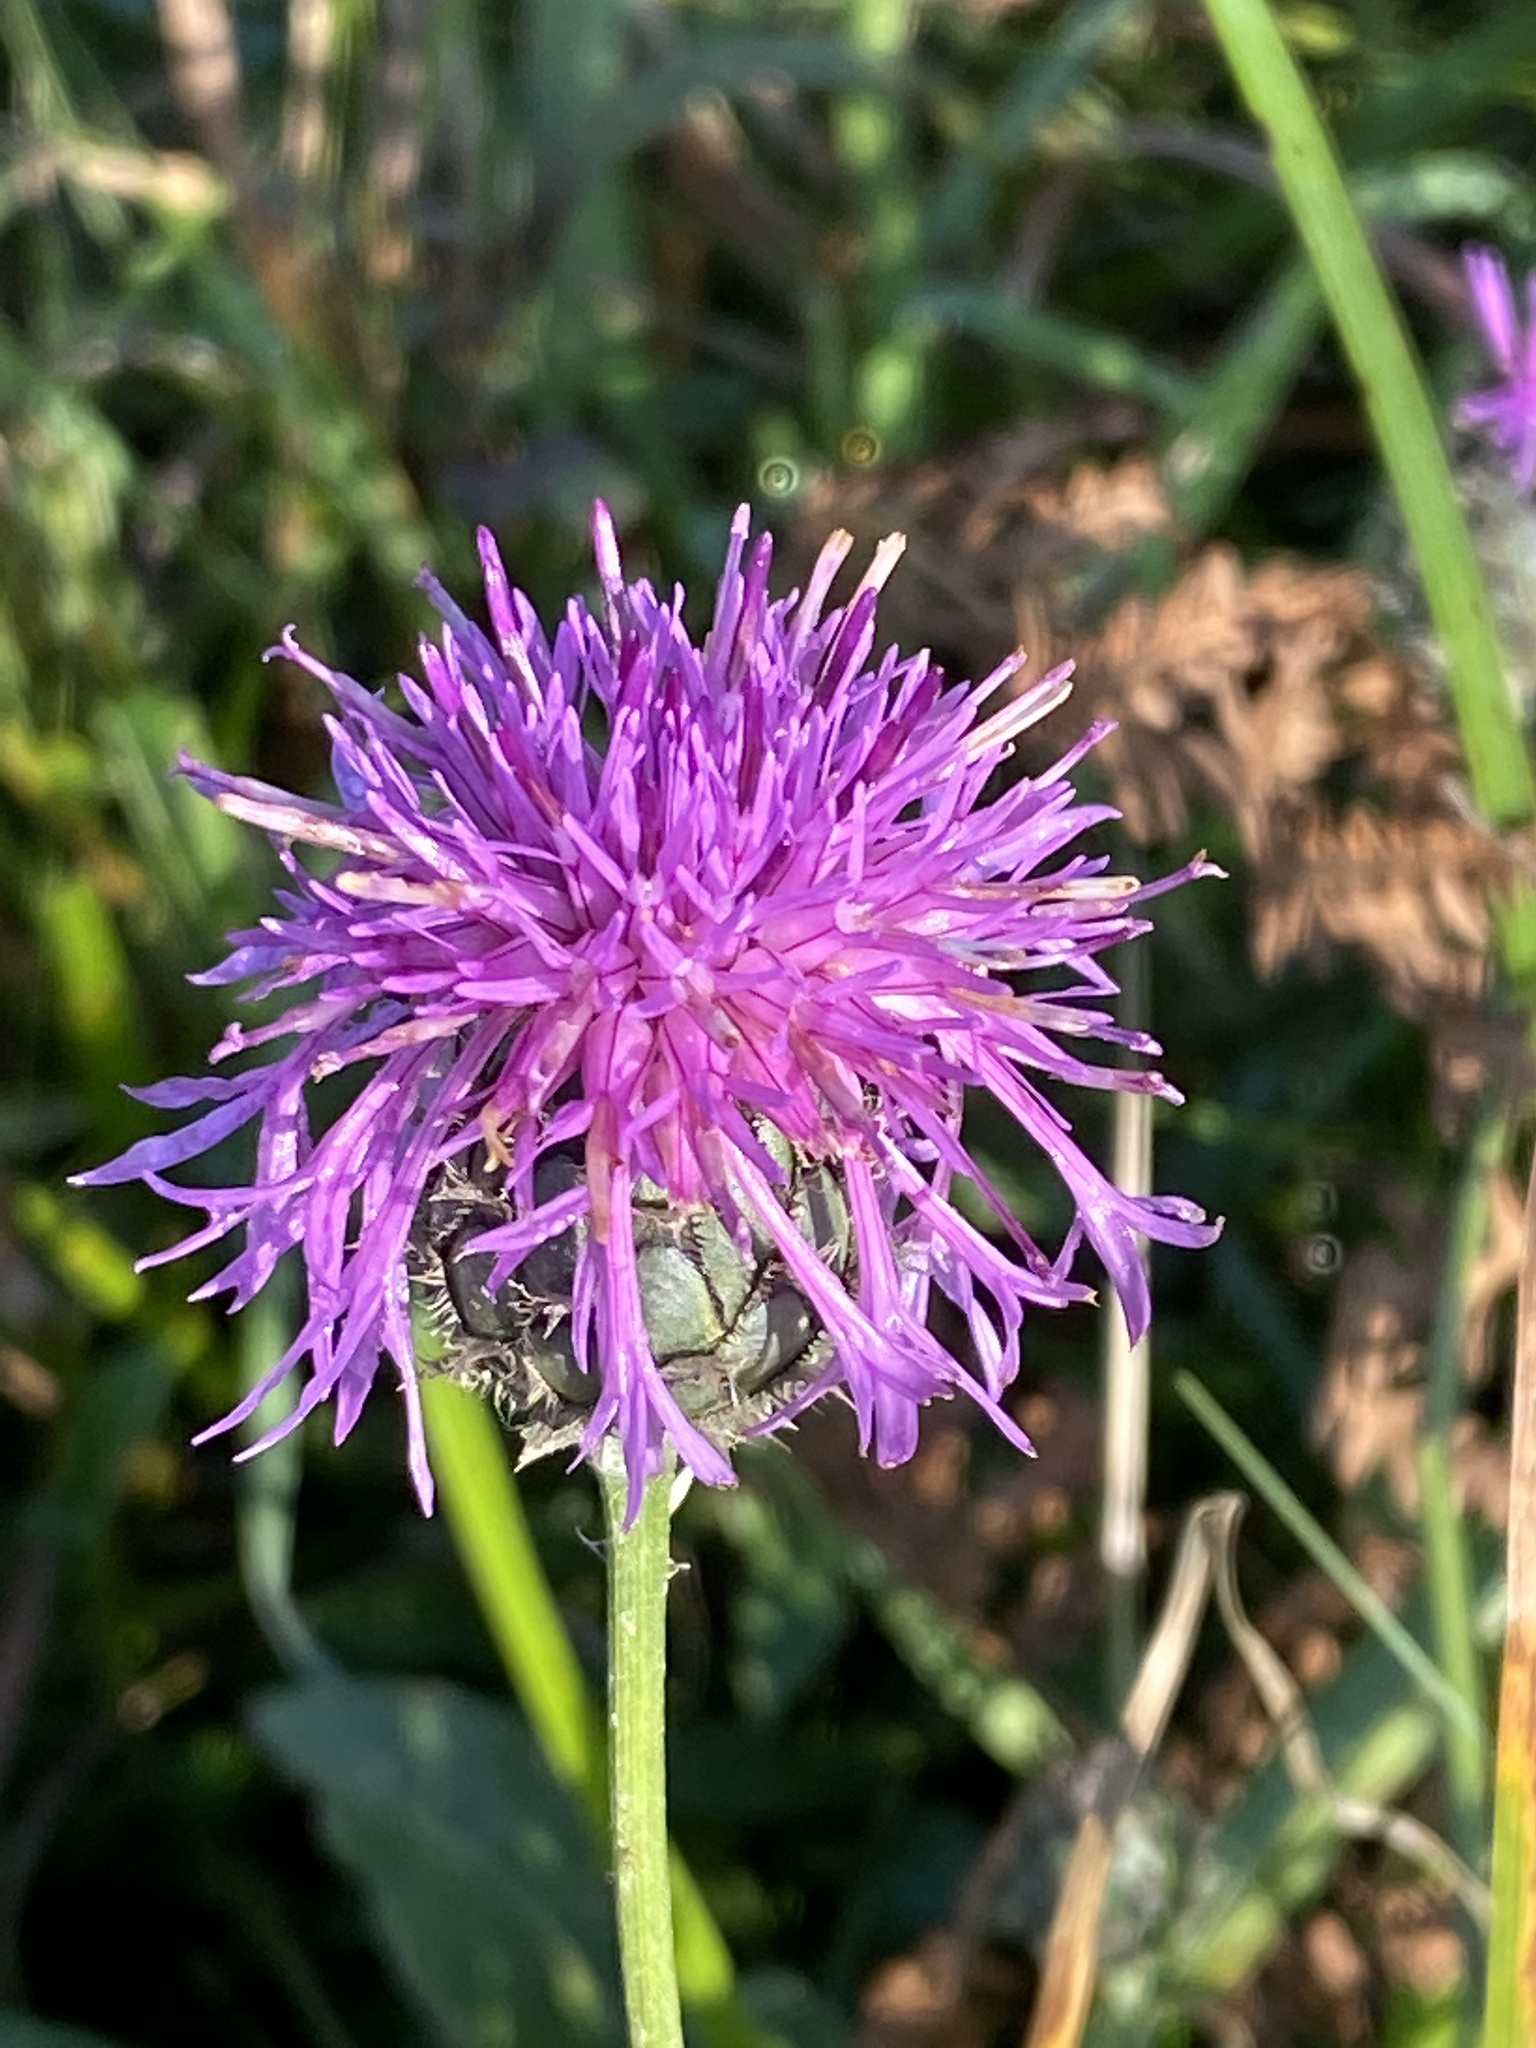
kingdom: Plantae
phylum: Tracheophyta
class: Magnoliopsida
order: Asterales
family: Asteraceae
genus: Centaurea
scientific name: Centaurea scabiosa
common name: Greater knapweed
